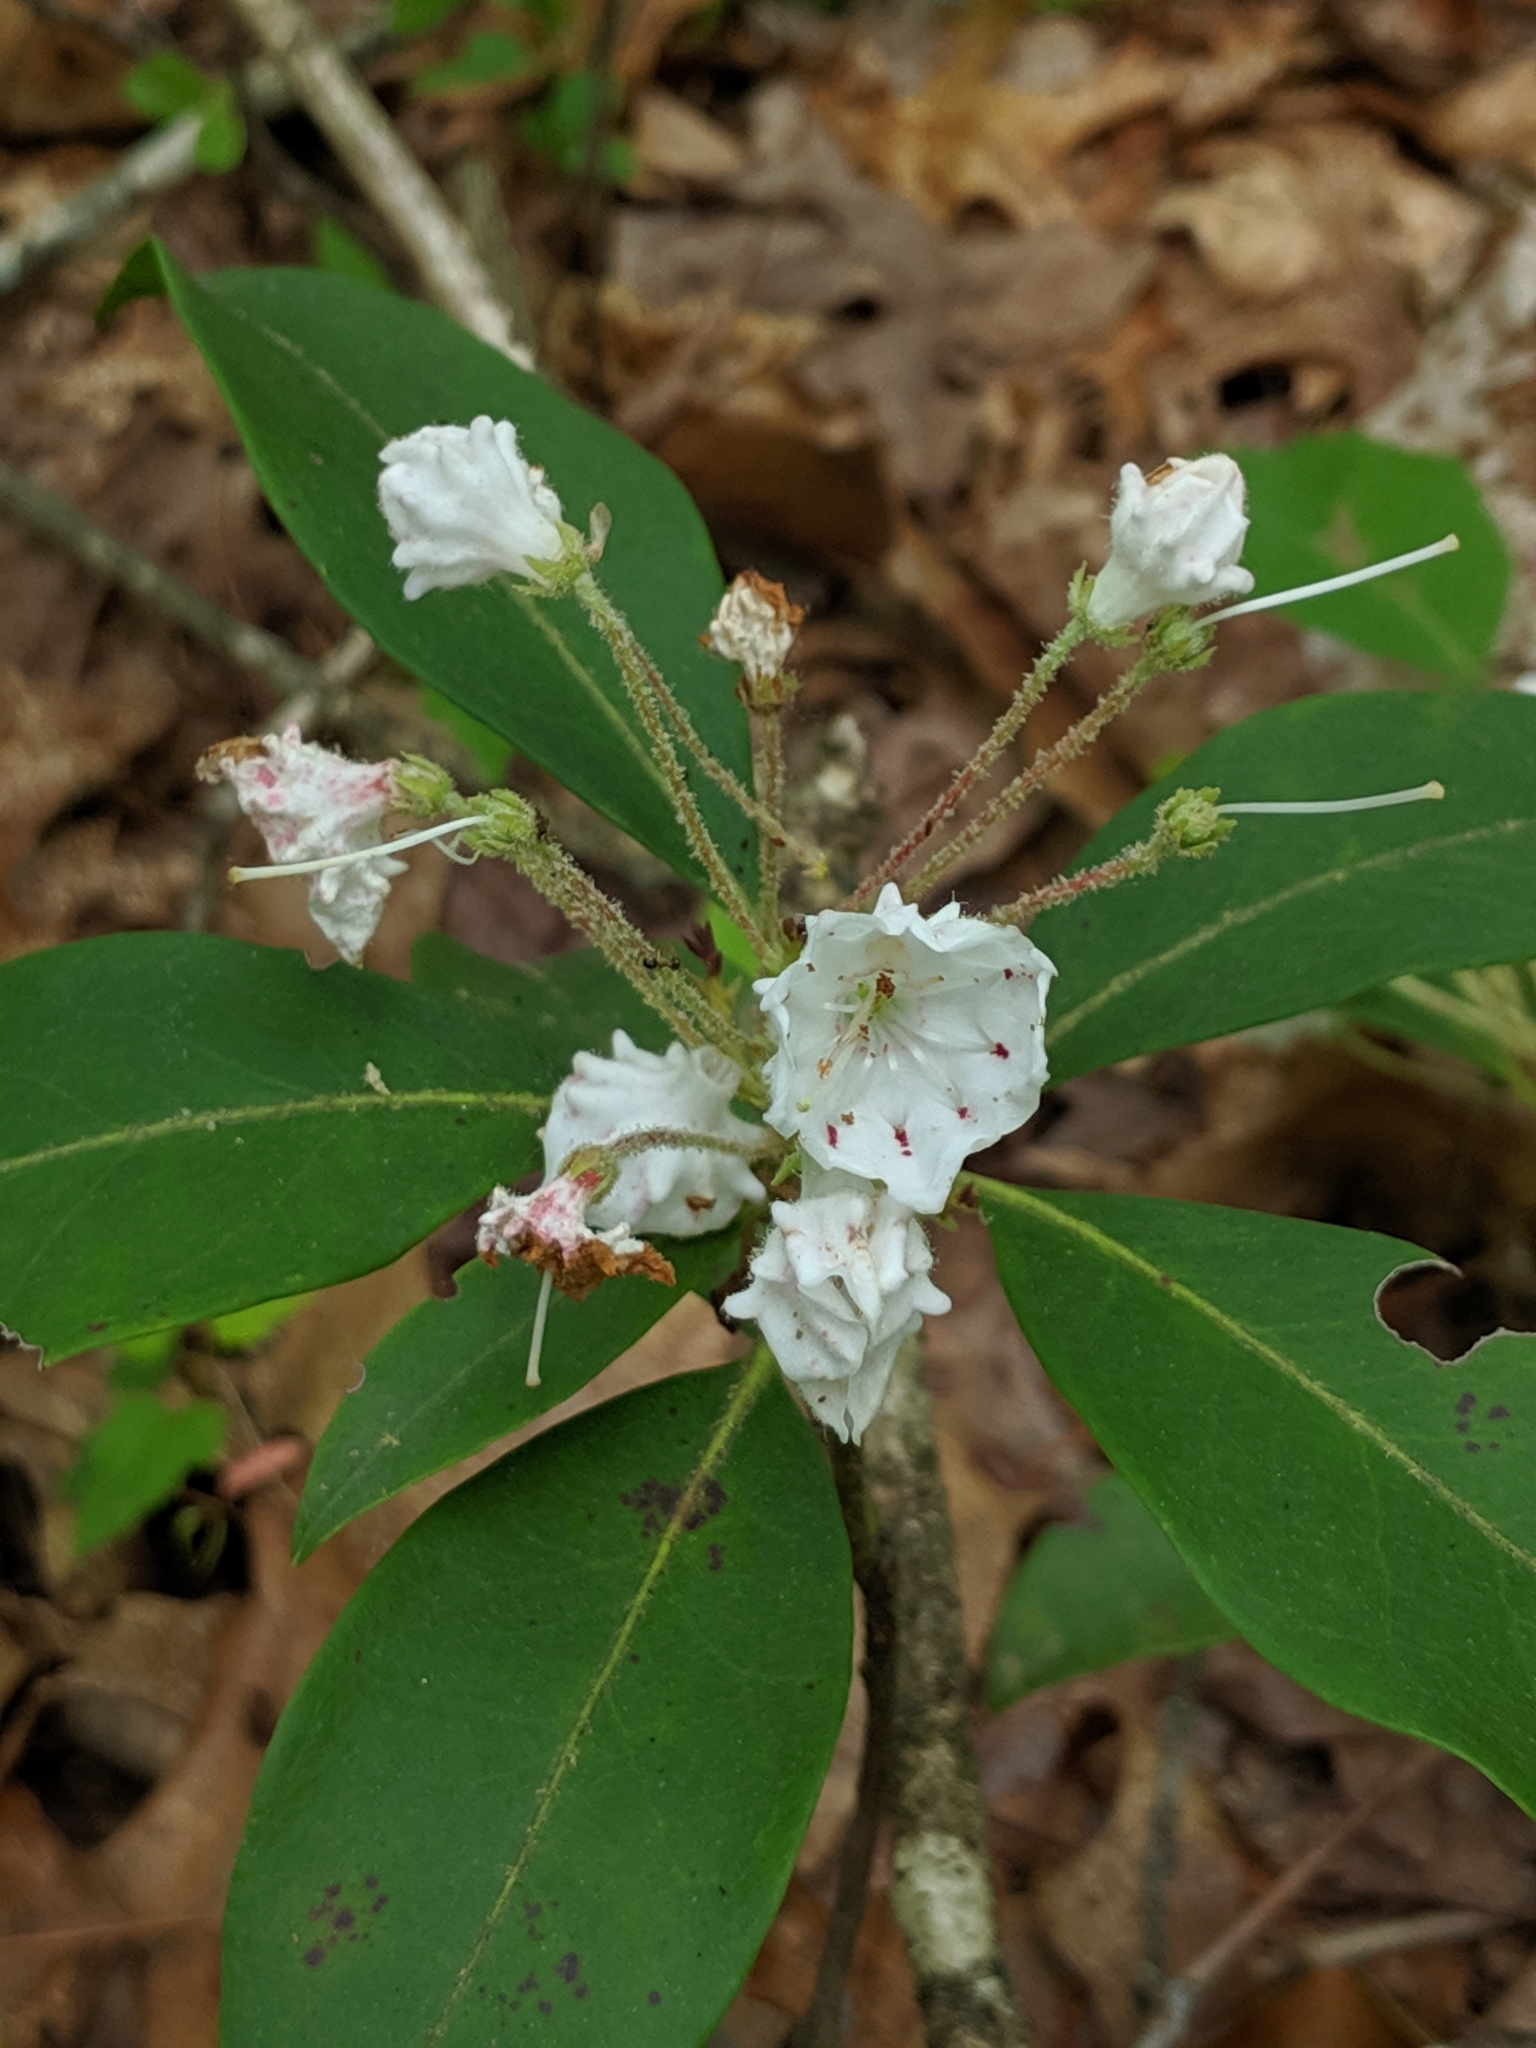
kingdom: Plantae
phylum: Tracheophyta
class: Magnoliopsida
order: Ericales
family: Ericaceae
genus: Kalmia
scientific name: Kalmia latifolia
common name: Mountain-laurel
